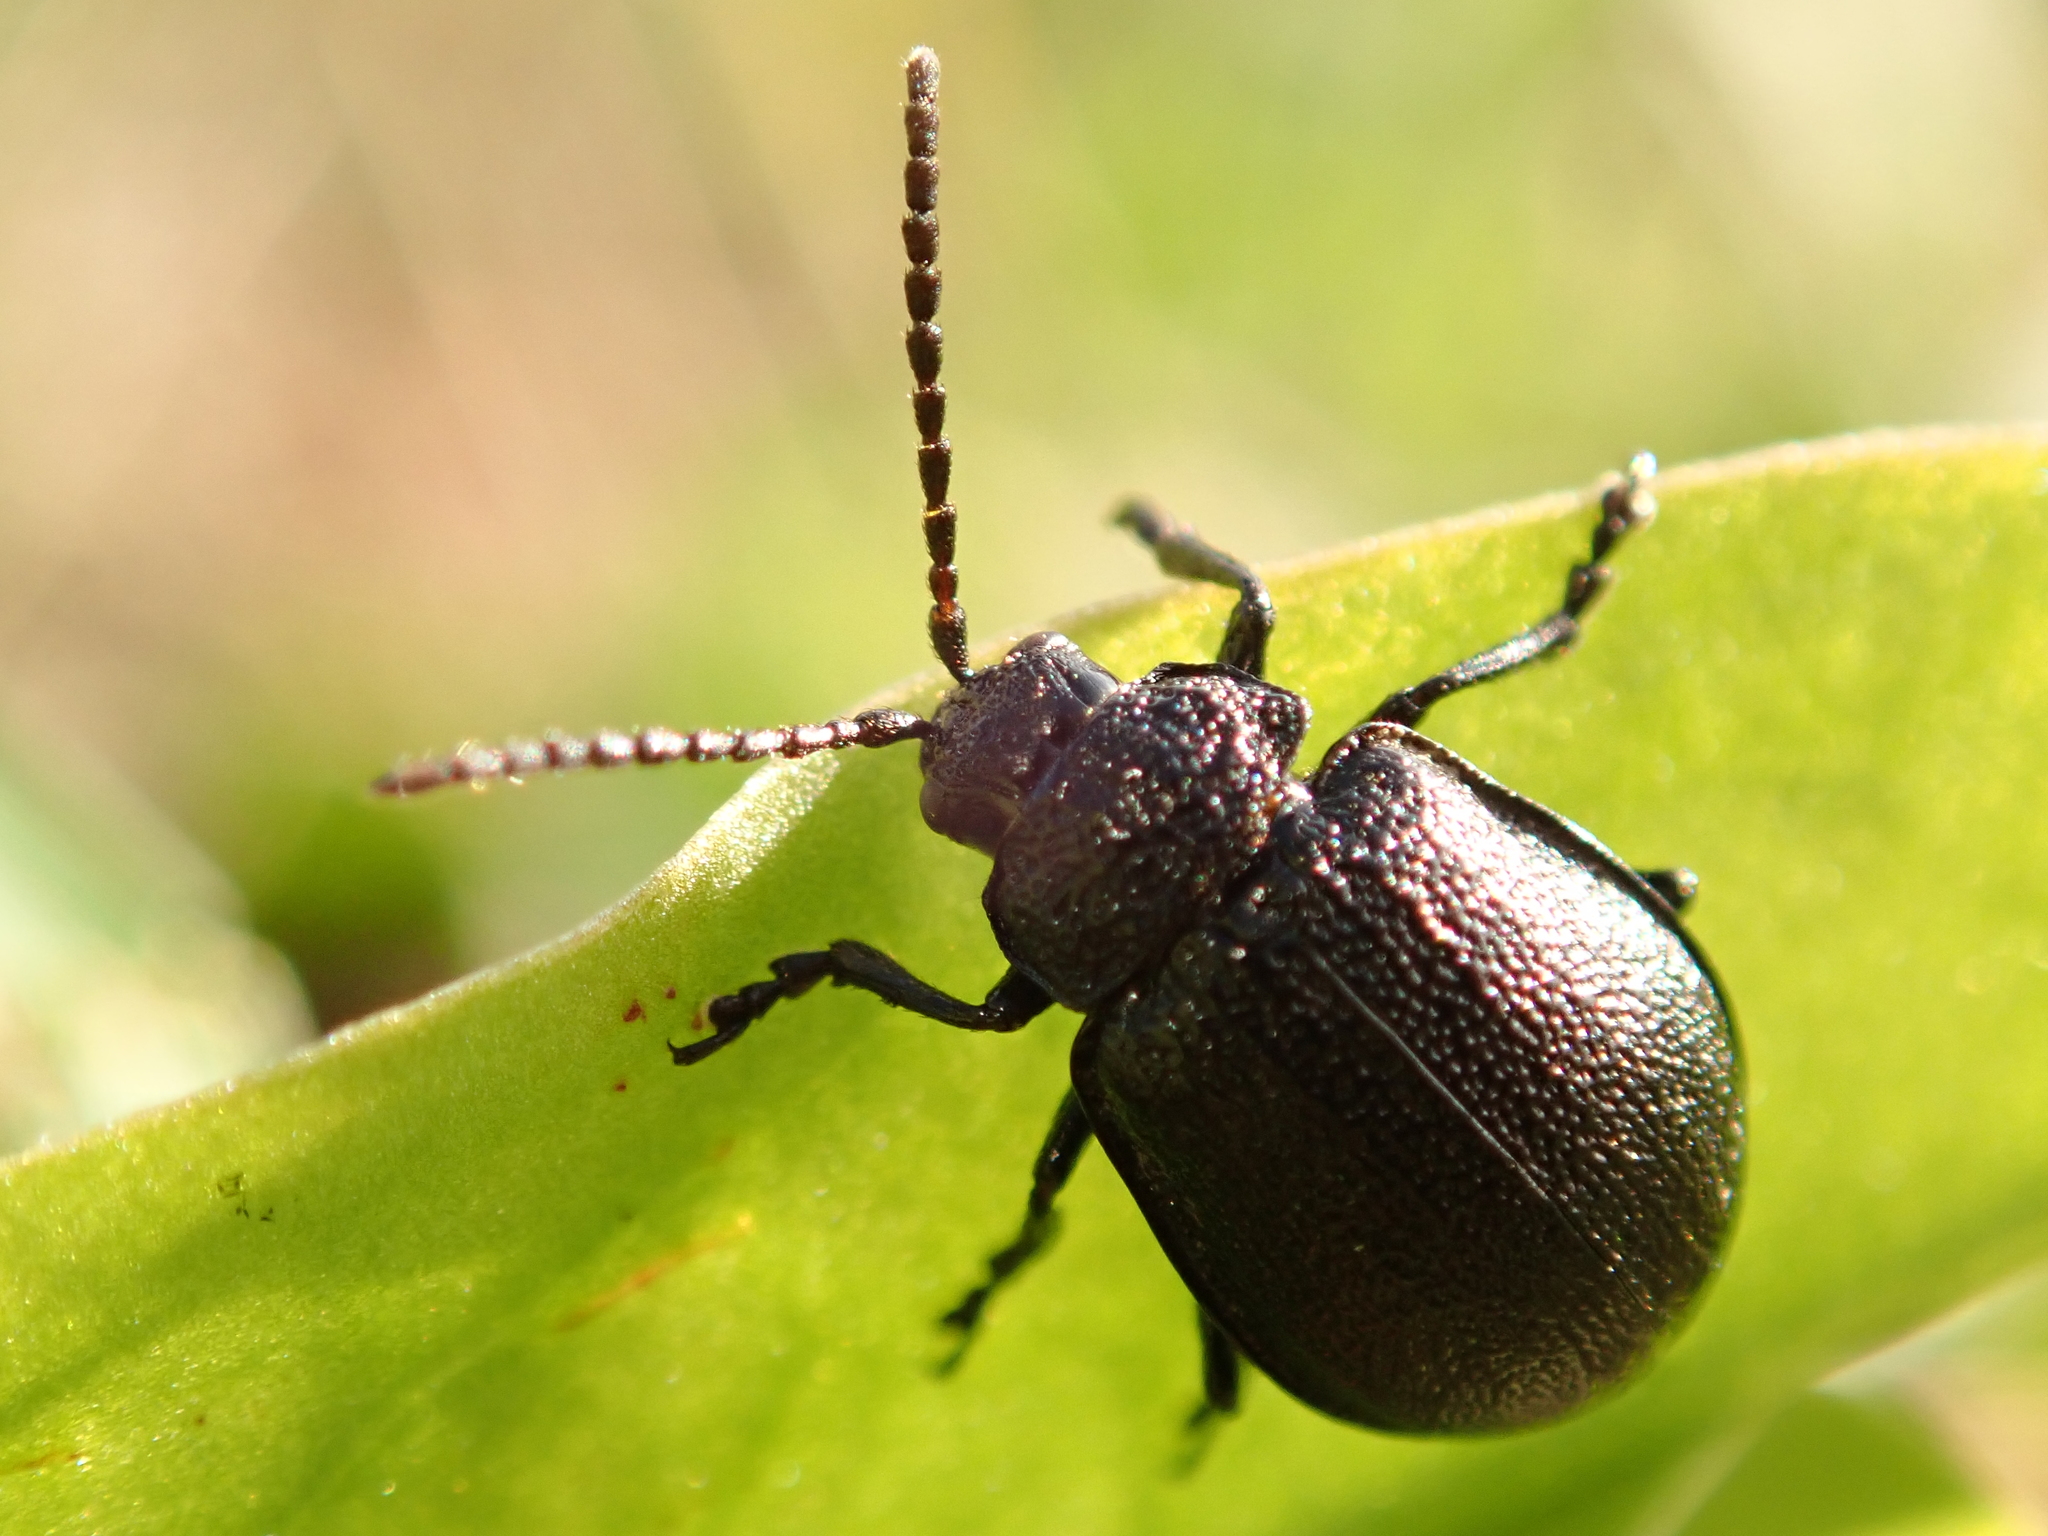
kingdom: Animalia
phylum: Arthropoda
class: Insecta
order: Coleoptera
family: Chrysomelidae
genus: Galeruca
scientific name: Galeruca tanaceti
